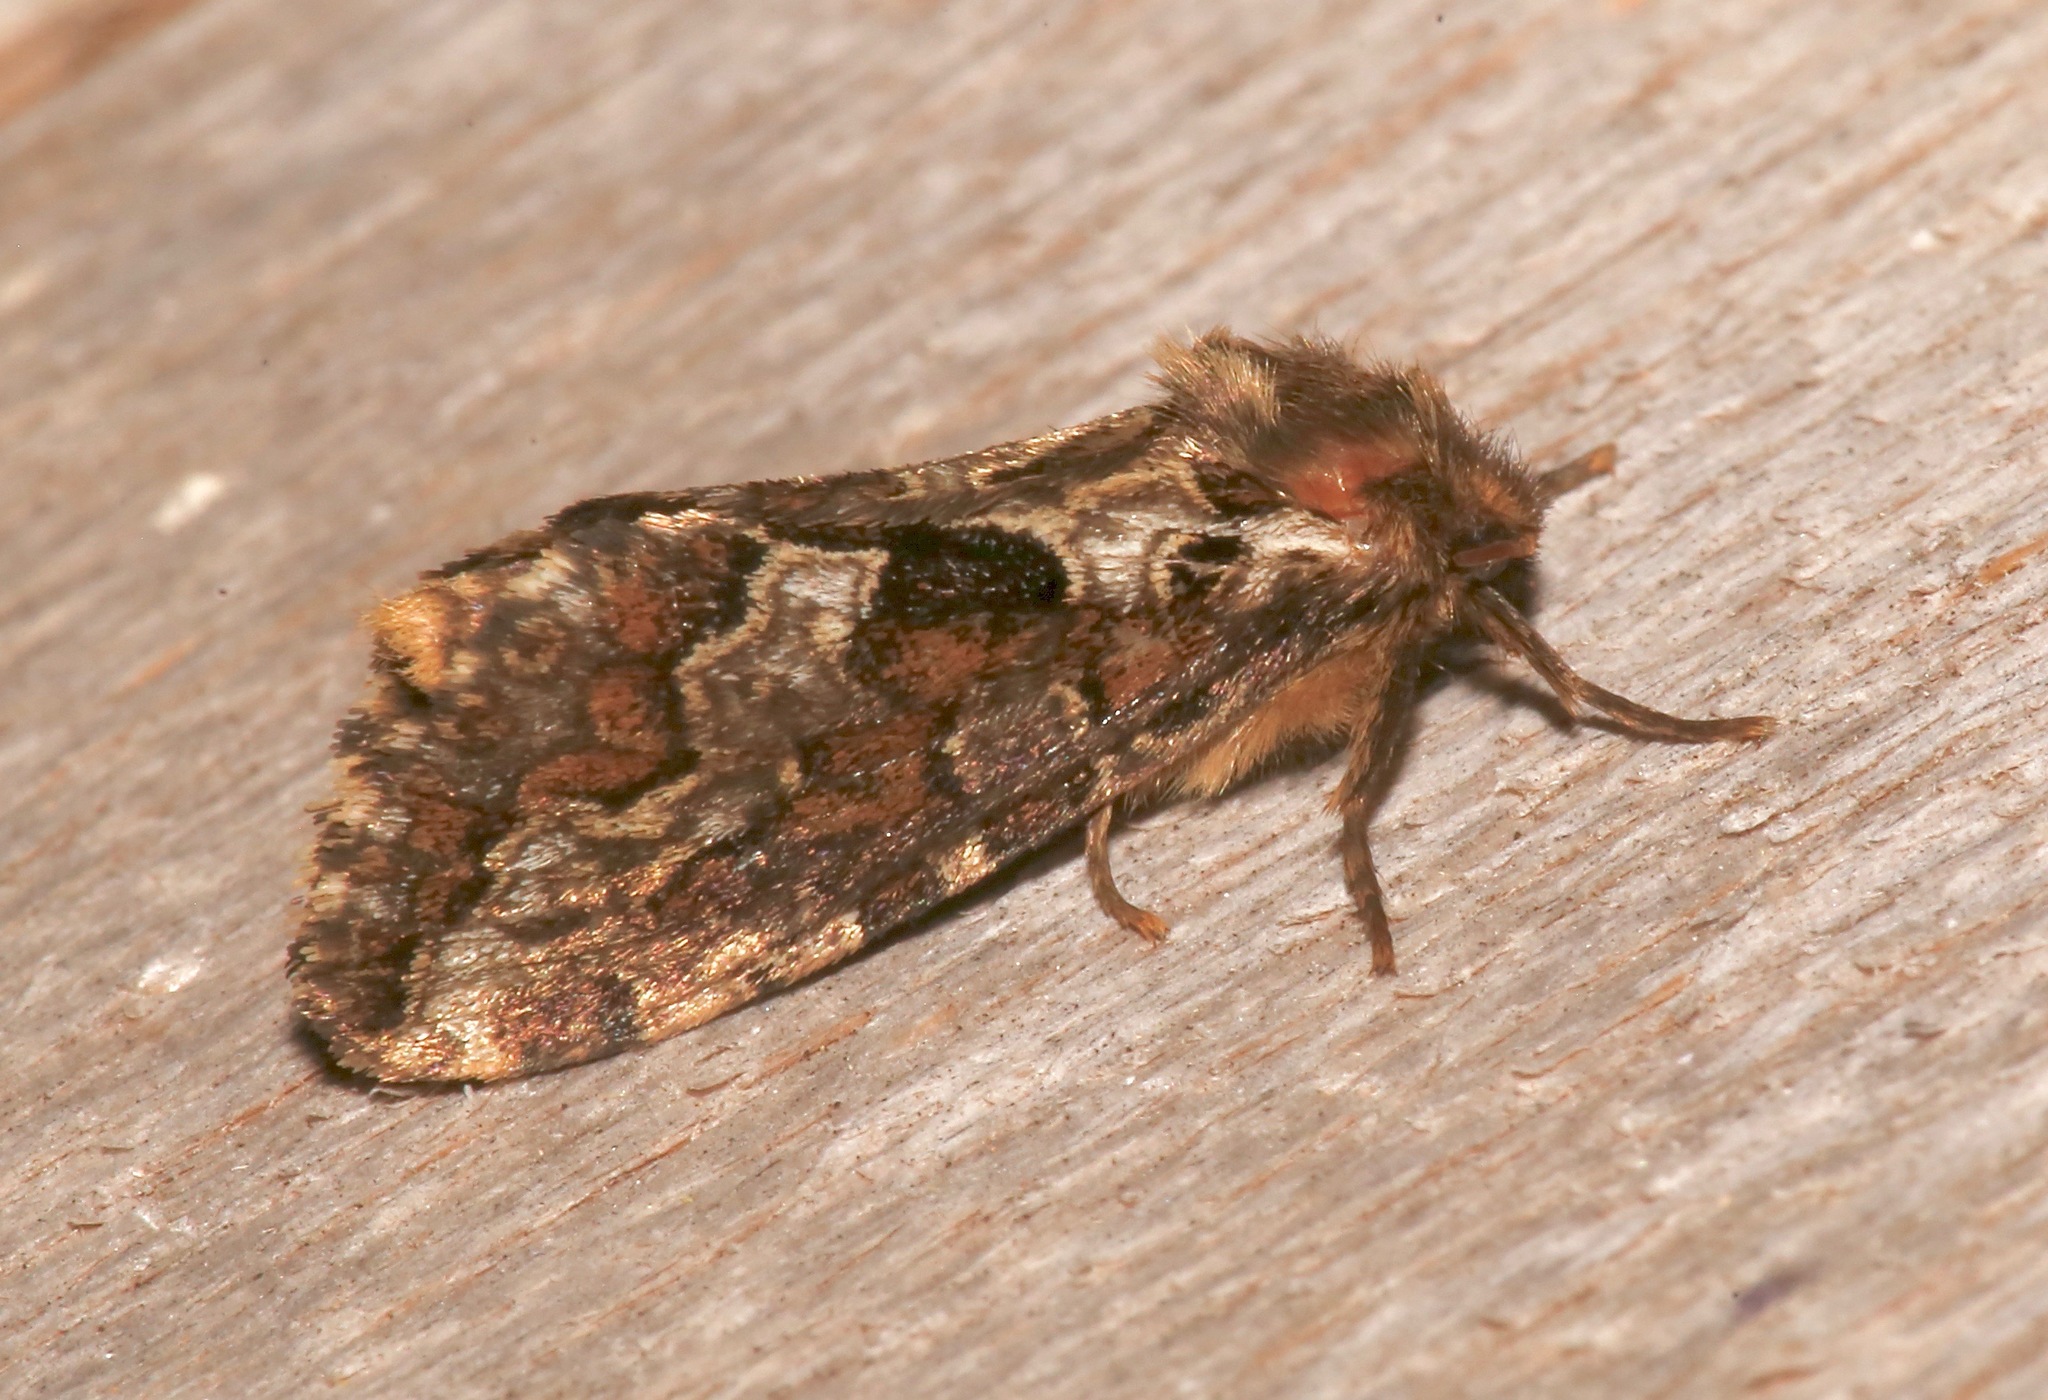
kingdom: Animalia
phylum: Arthropoda
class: Insecta
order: Lepidoptera
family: Hepialidae
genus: Korscheltellus
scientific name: Korscheltellus gracilis
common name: Conifer swift moth
